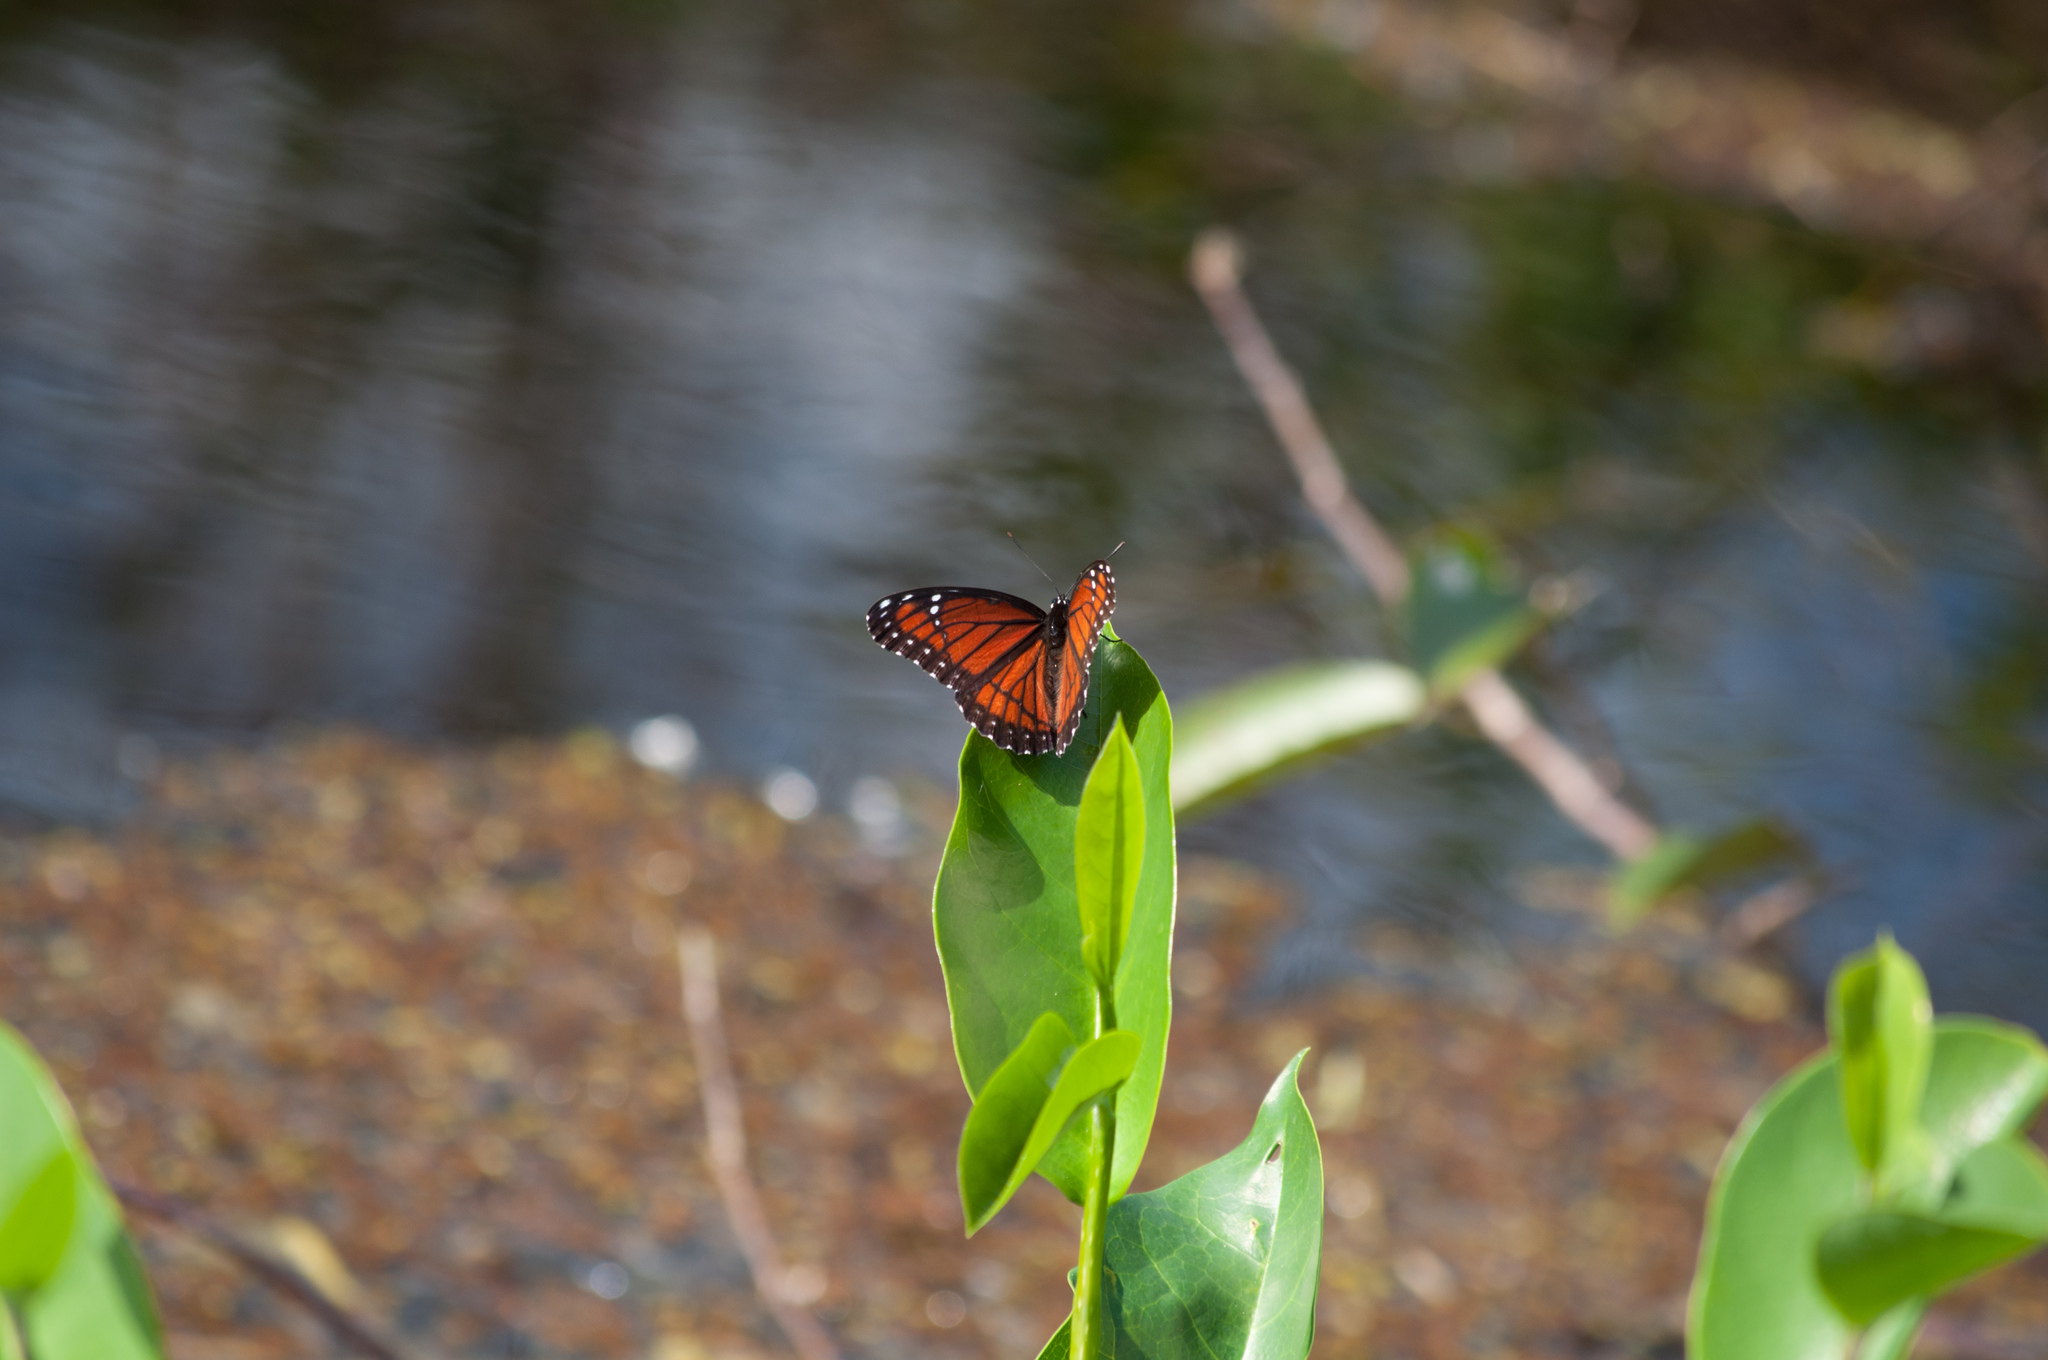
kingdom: Animalia
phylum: Arthropoda
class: Insecta
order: Lepidoptera
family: Nymphalidae
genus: Limenitis
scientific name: Limenitis archippus
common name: Viceroy
